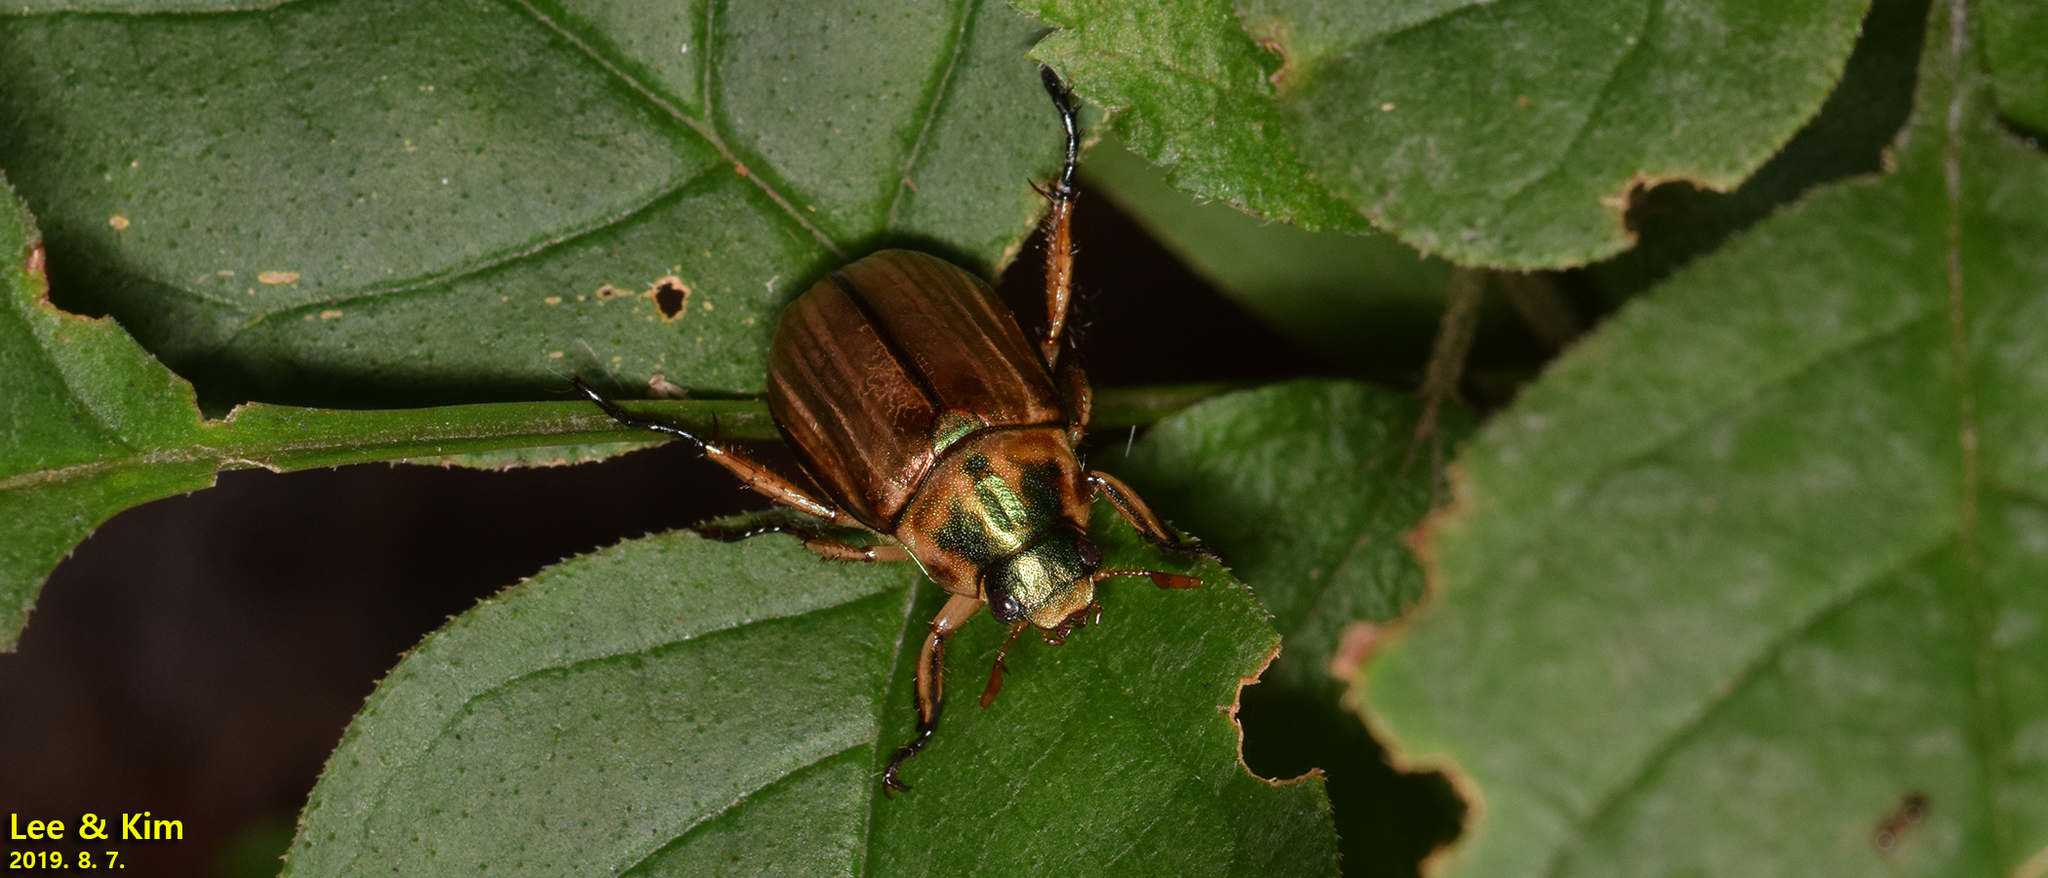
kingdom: Animalia
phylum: Arthropoda
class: Insecta
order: Coleoptera
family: Scarabaeidae
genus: Mimela
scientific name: Mimela testaceipes
